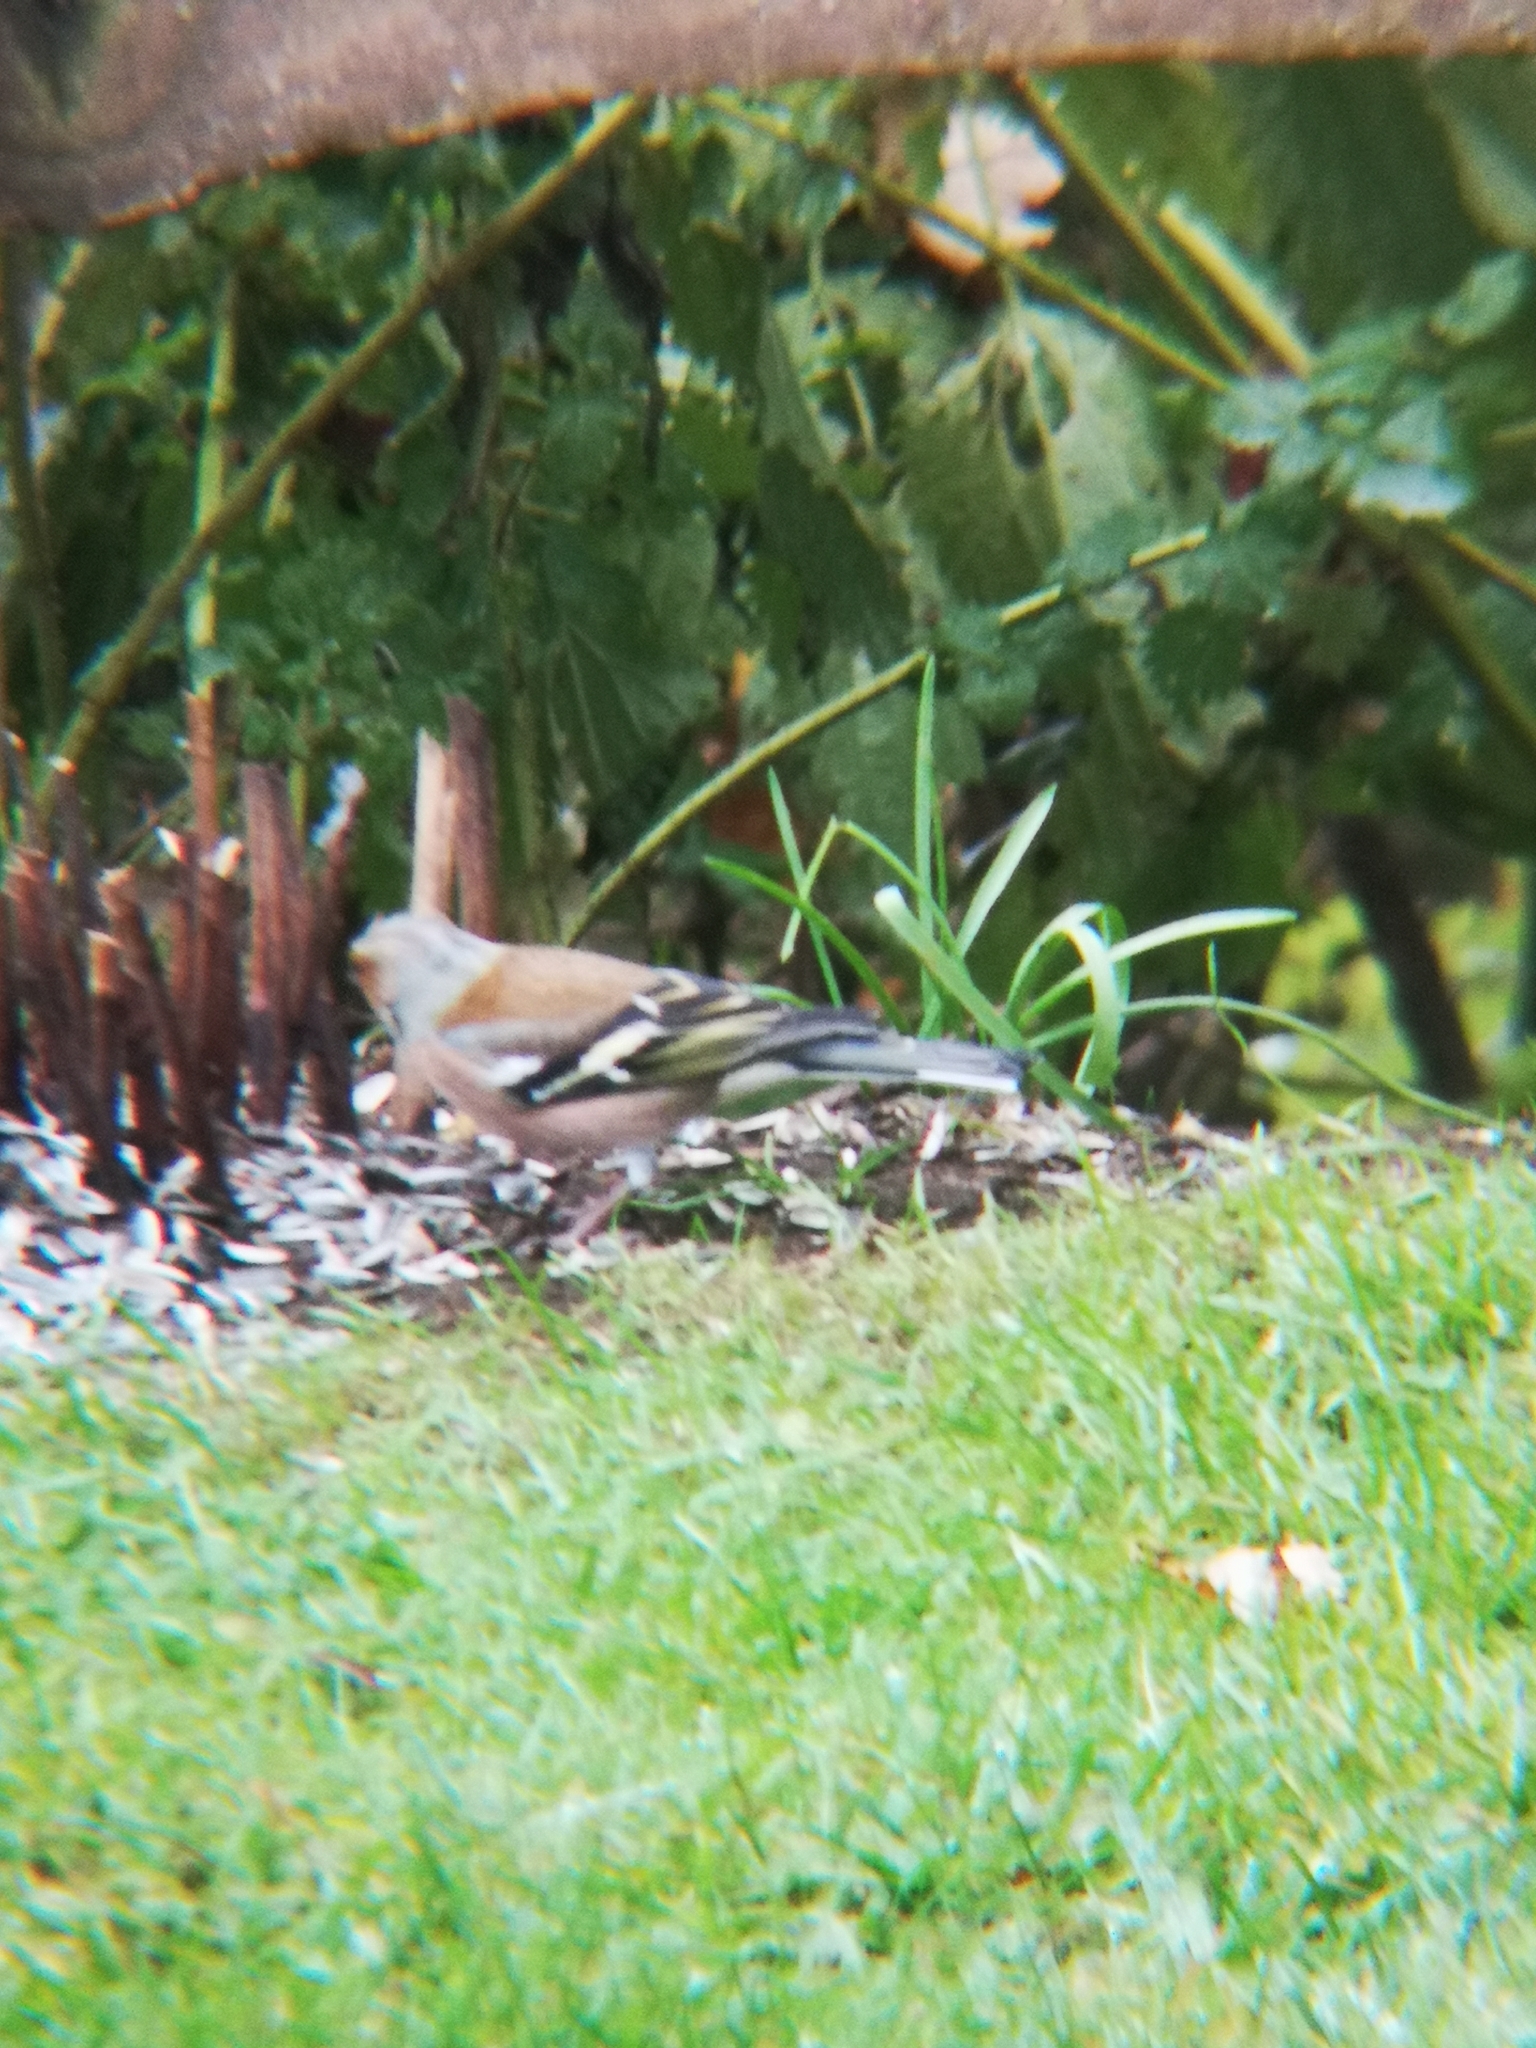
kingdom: Animalia
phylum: Chordata
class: Aves
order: Passeriformes
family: Fringillidae
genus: Fringilla
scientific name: Fringilla coelebs
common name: Common chaffinch
